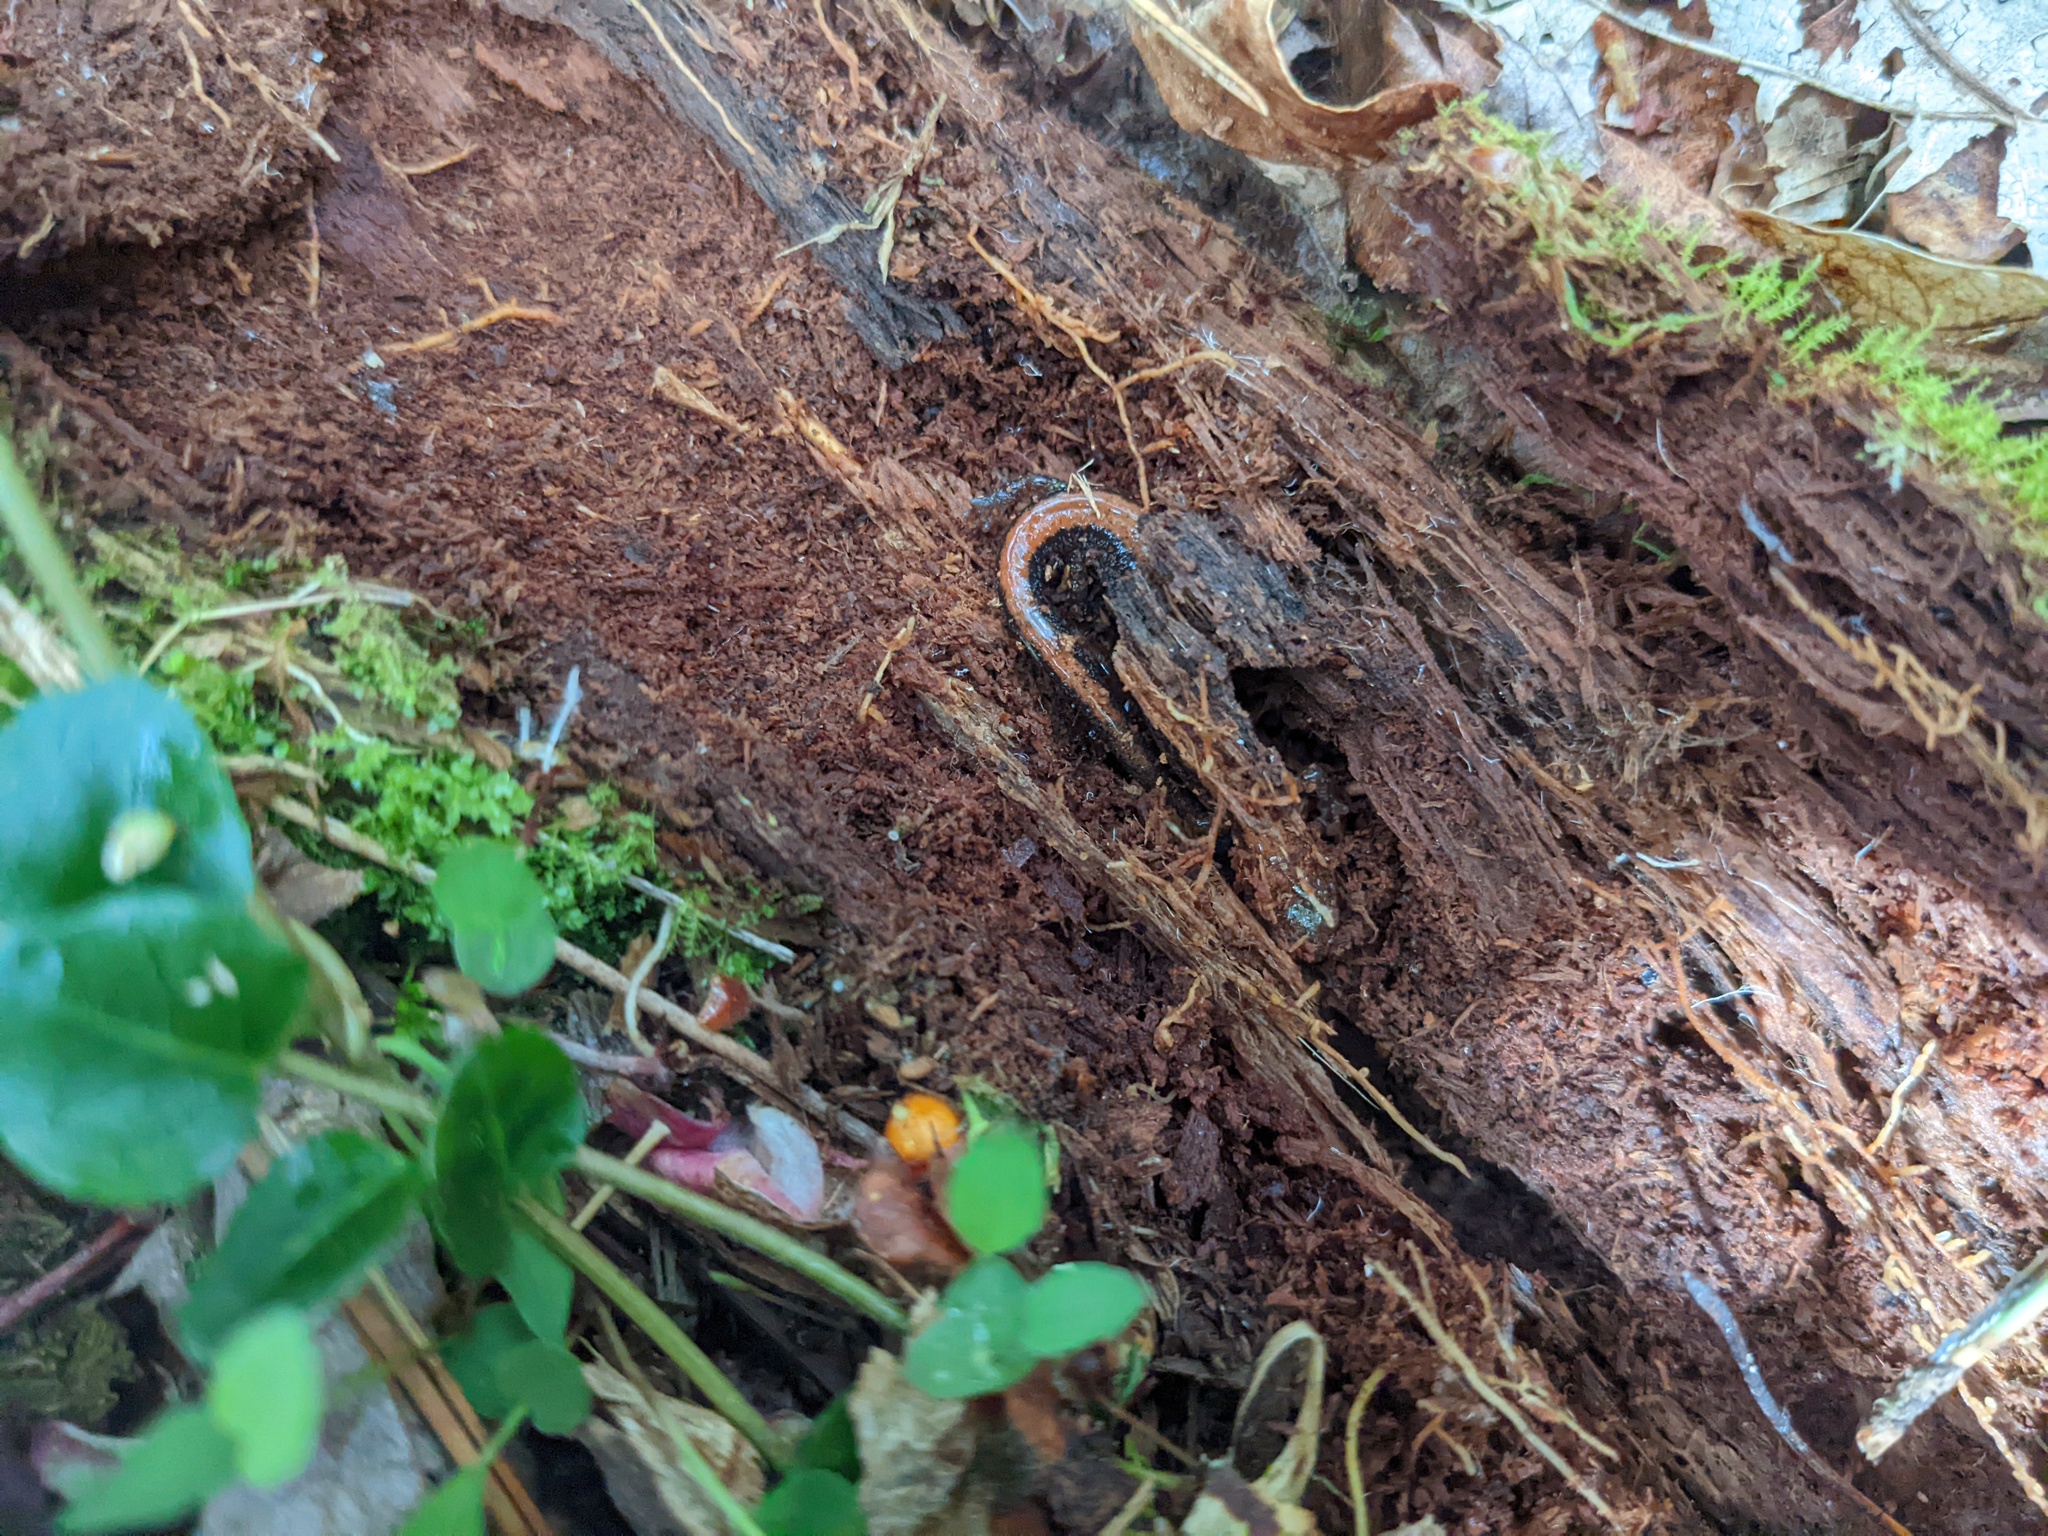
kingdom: Animalia
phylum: Chordata
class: Amphibia
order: Caudata
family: Plethodontidae
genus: Plethodon
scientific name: Plethodon cinereus
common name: Redback salamander
